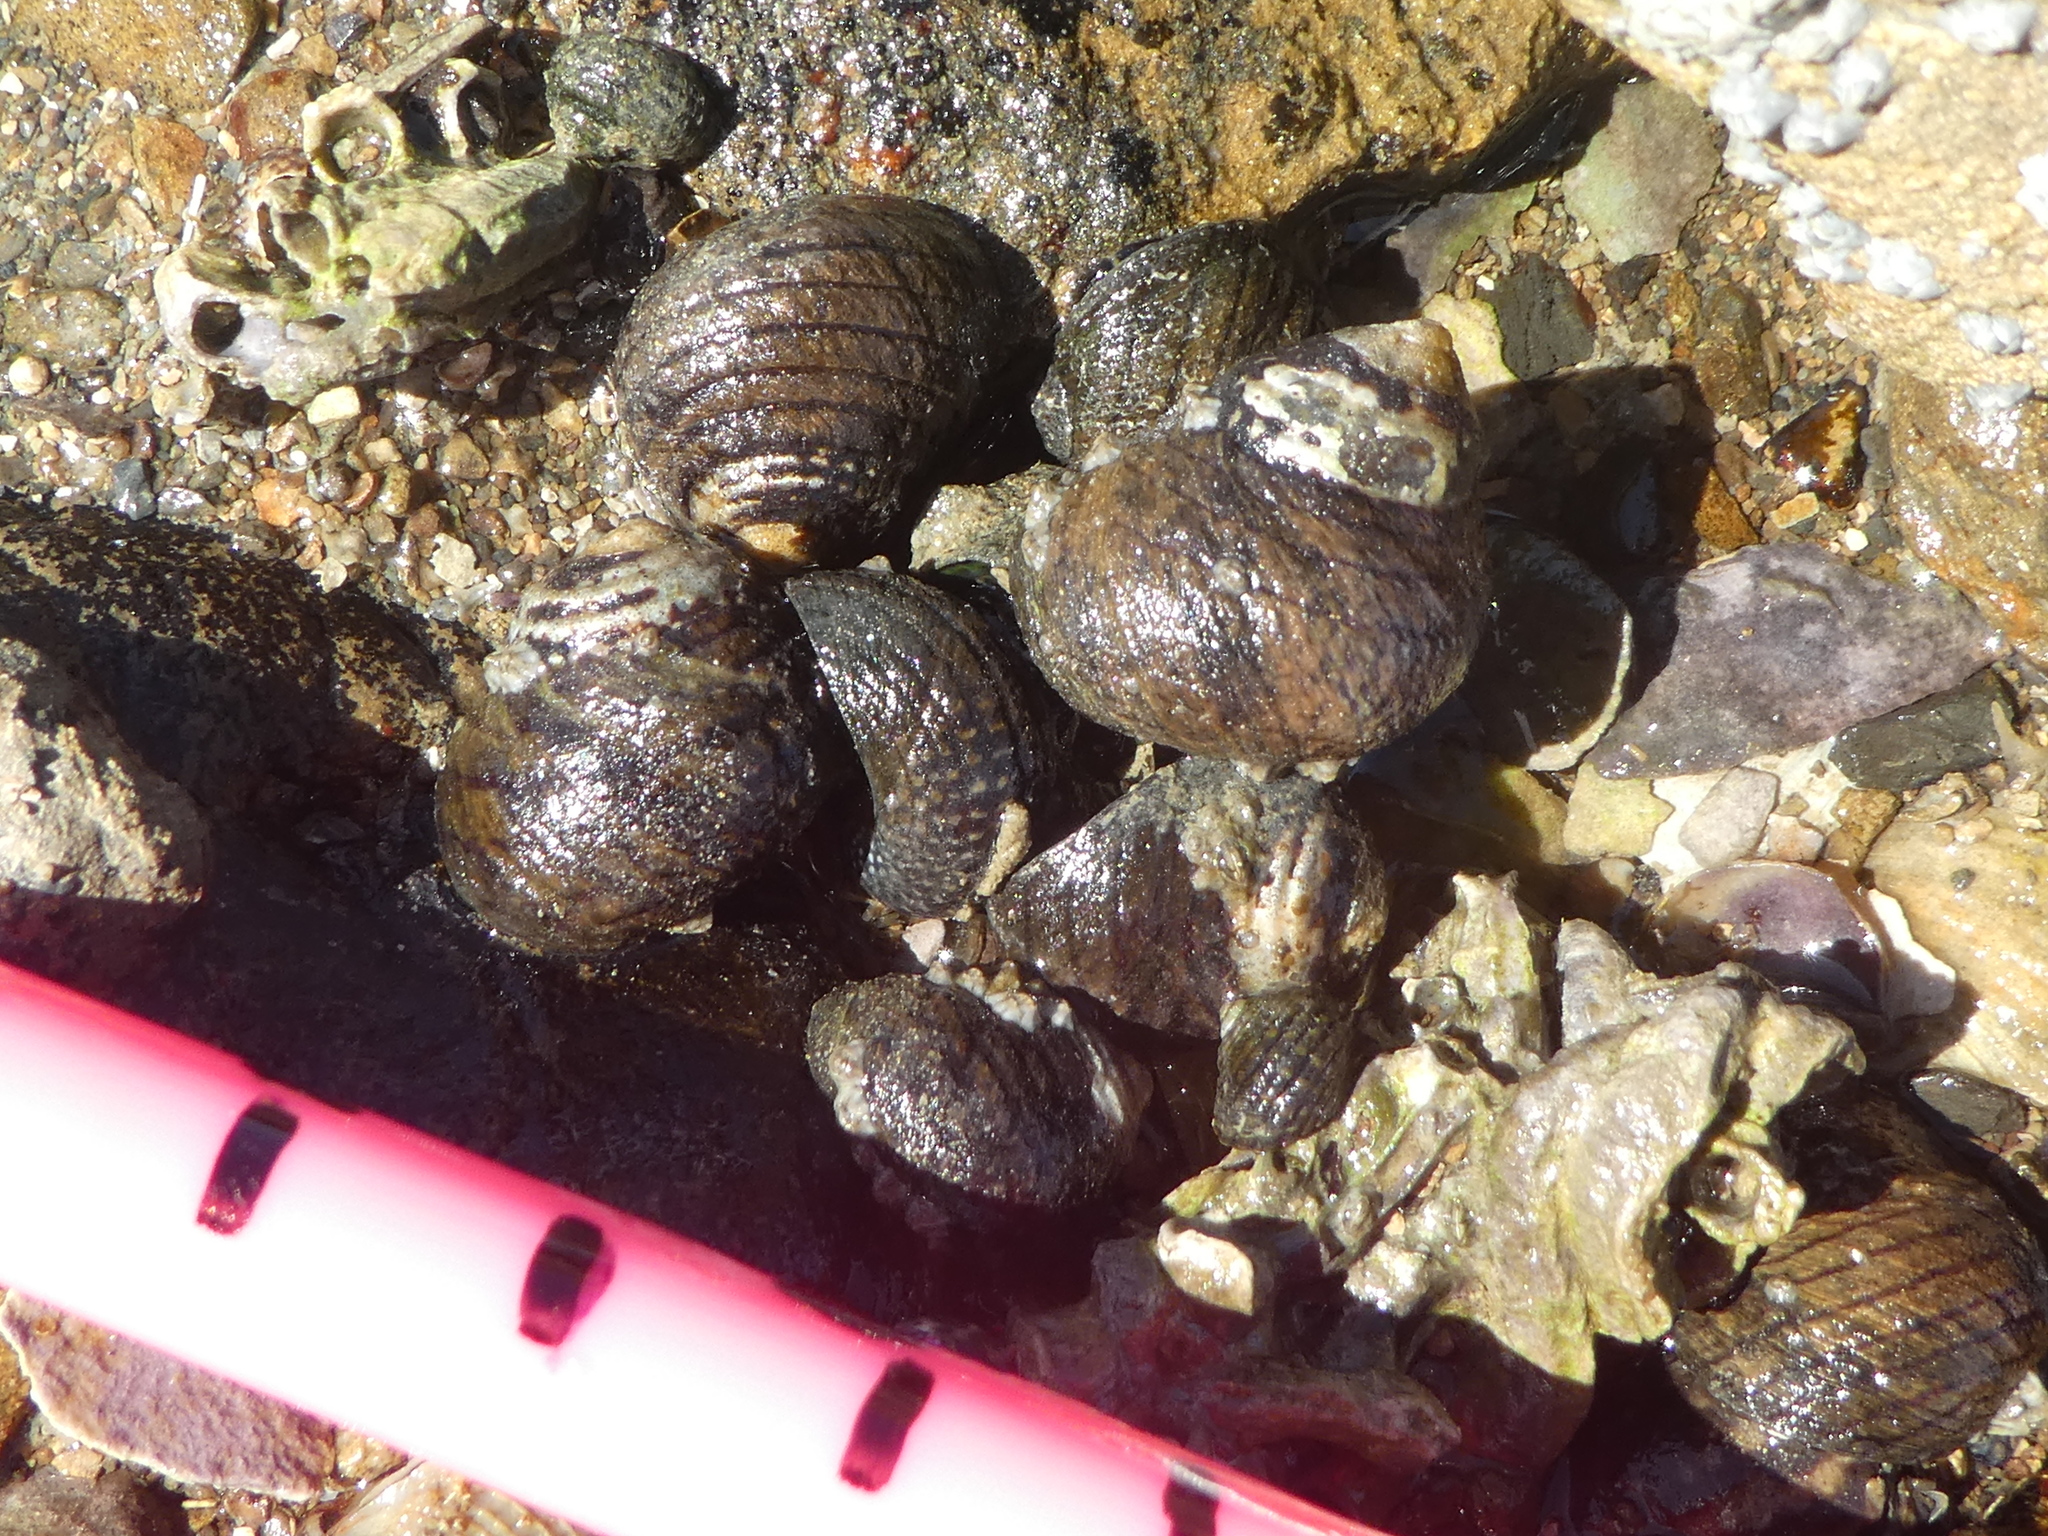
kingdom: Animalia
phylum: Mollusca
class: Gastropoda
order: Trochida
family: Trochidae
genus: Diloma
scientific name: Diloma aethiops
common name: Scorched monodont
